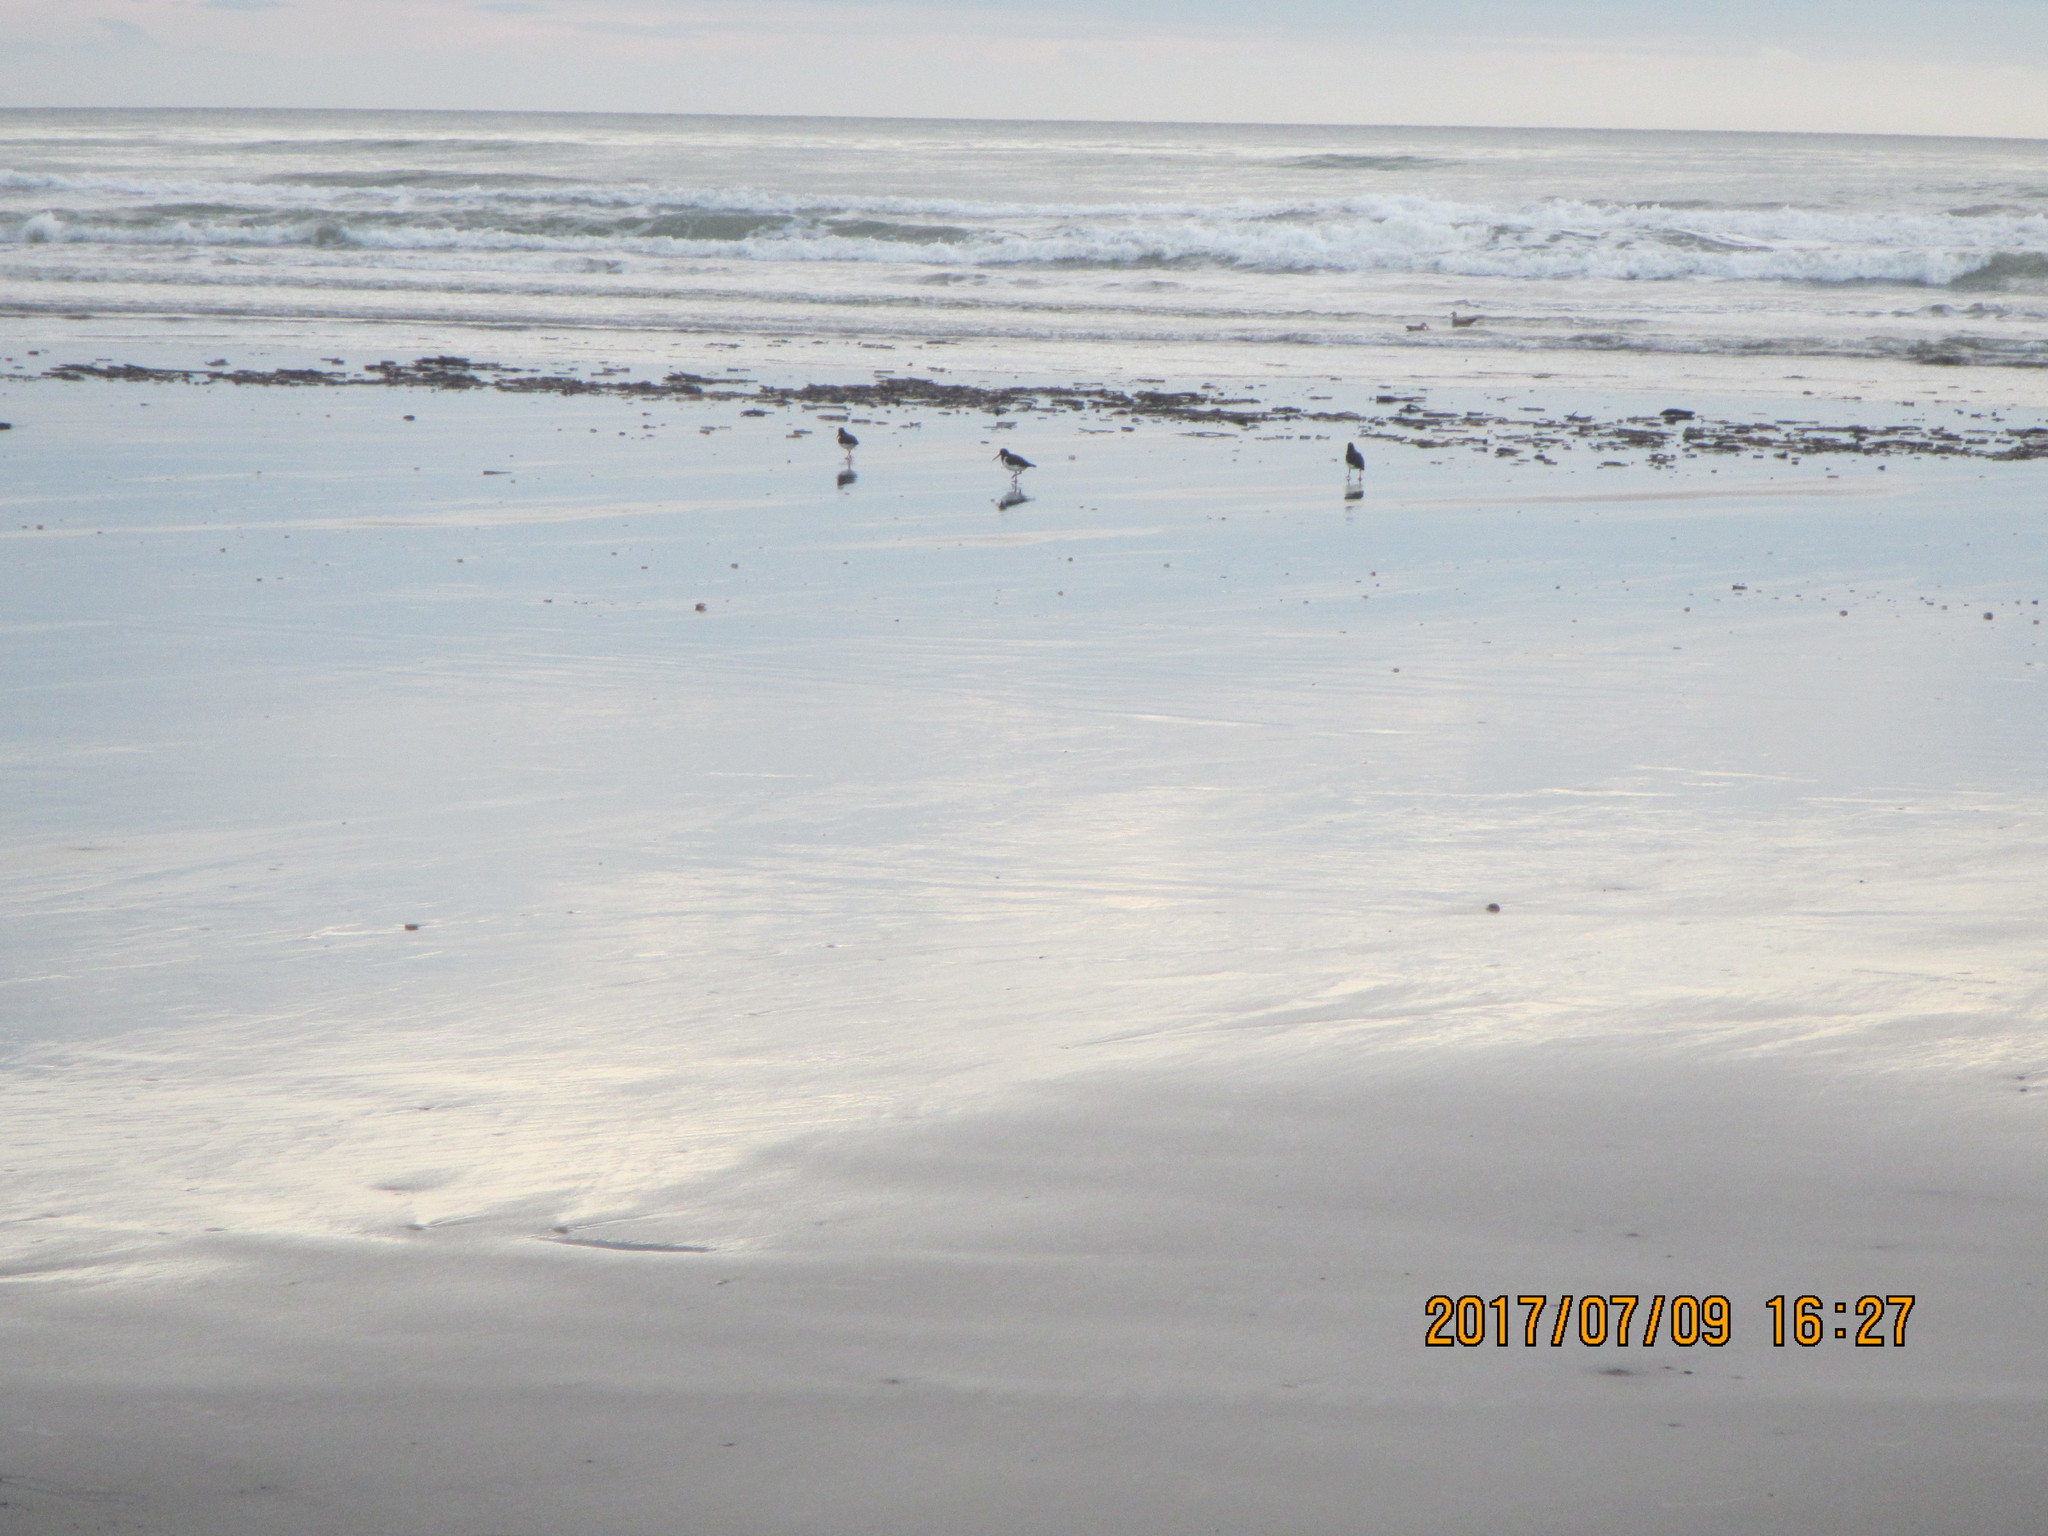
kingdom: Animalia
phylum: Chordata
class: Aves
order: Charadriiformes
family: Haematopodidae
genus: Haematopus
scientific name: Haematopus finschi
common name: South island oystercatcher
